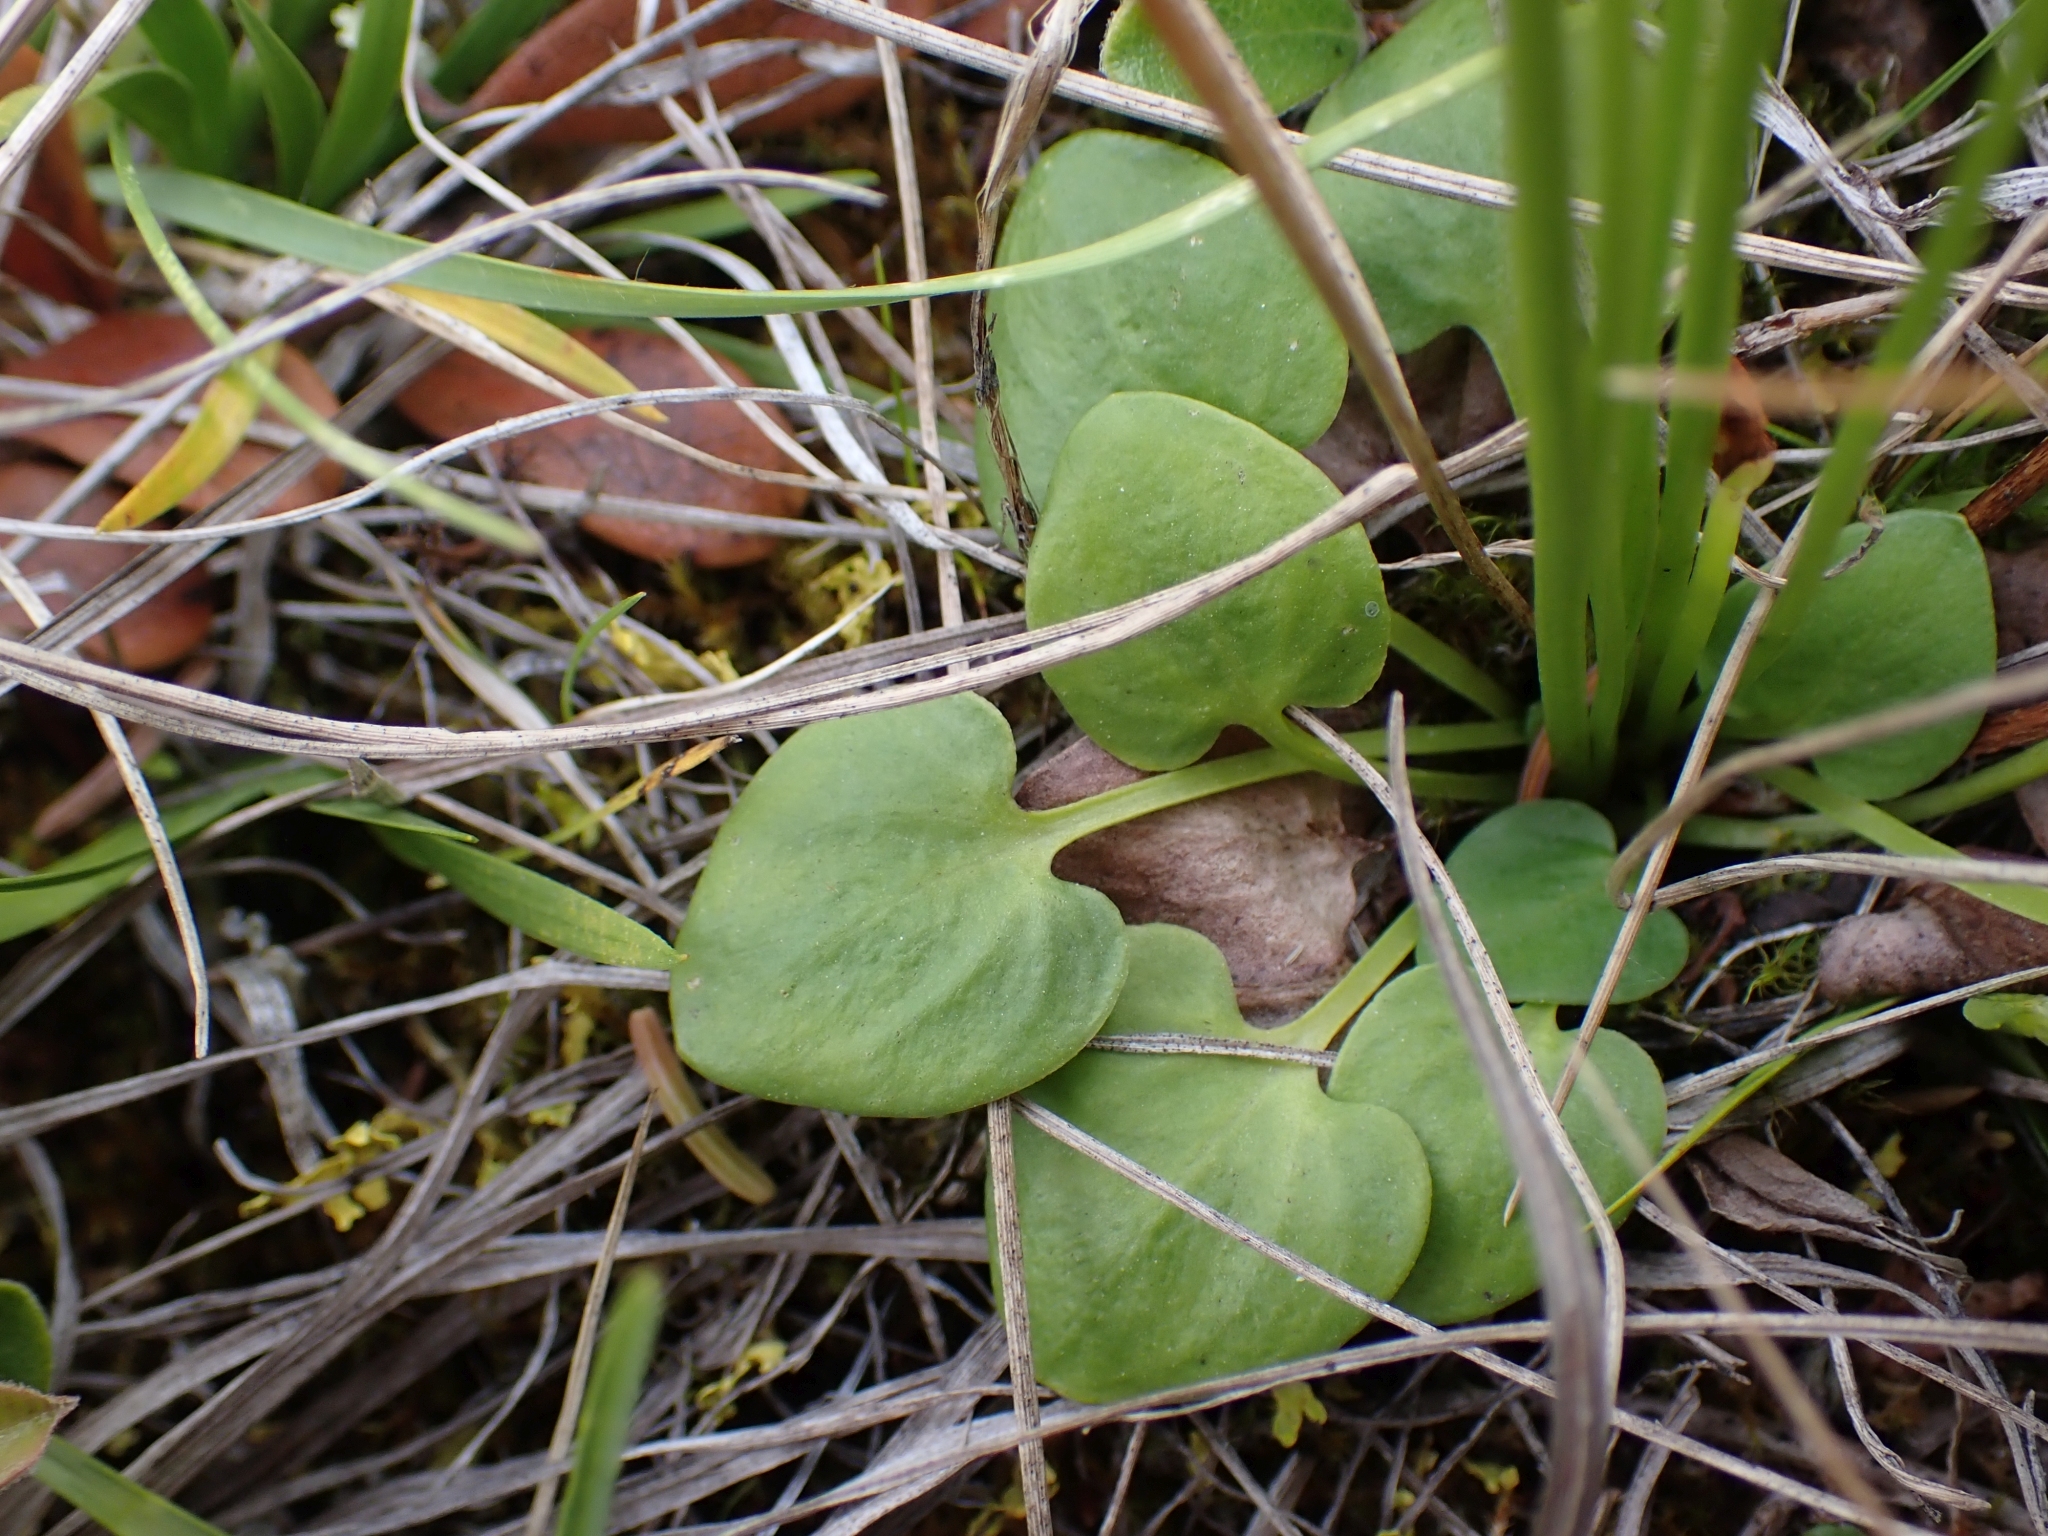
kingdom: Plantae
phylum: Tracheophyta
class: Magnoliopsida
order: Celastrales
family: Parnassiaceae
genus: Parnassia
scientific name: Parnassia palustris
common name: Grass-of-parnassus
